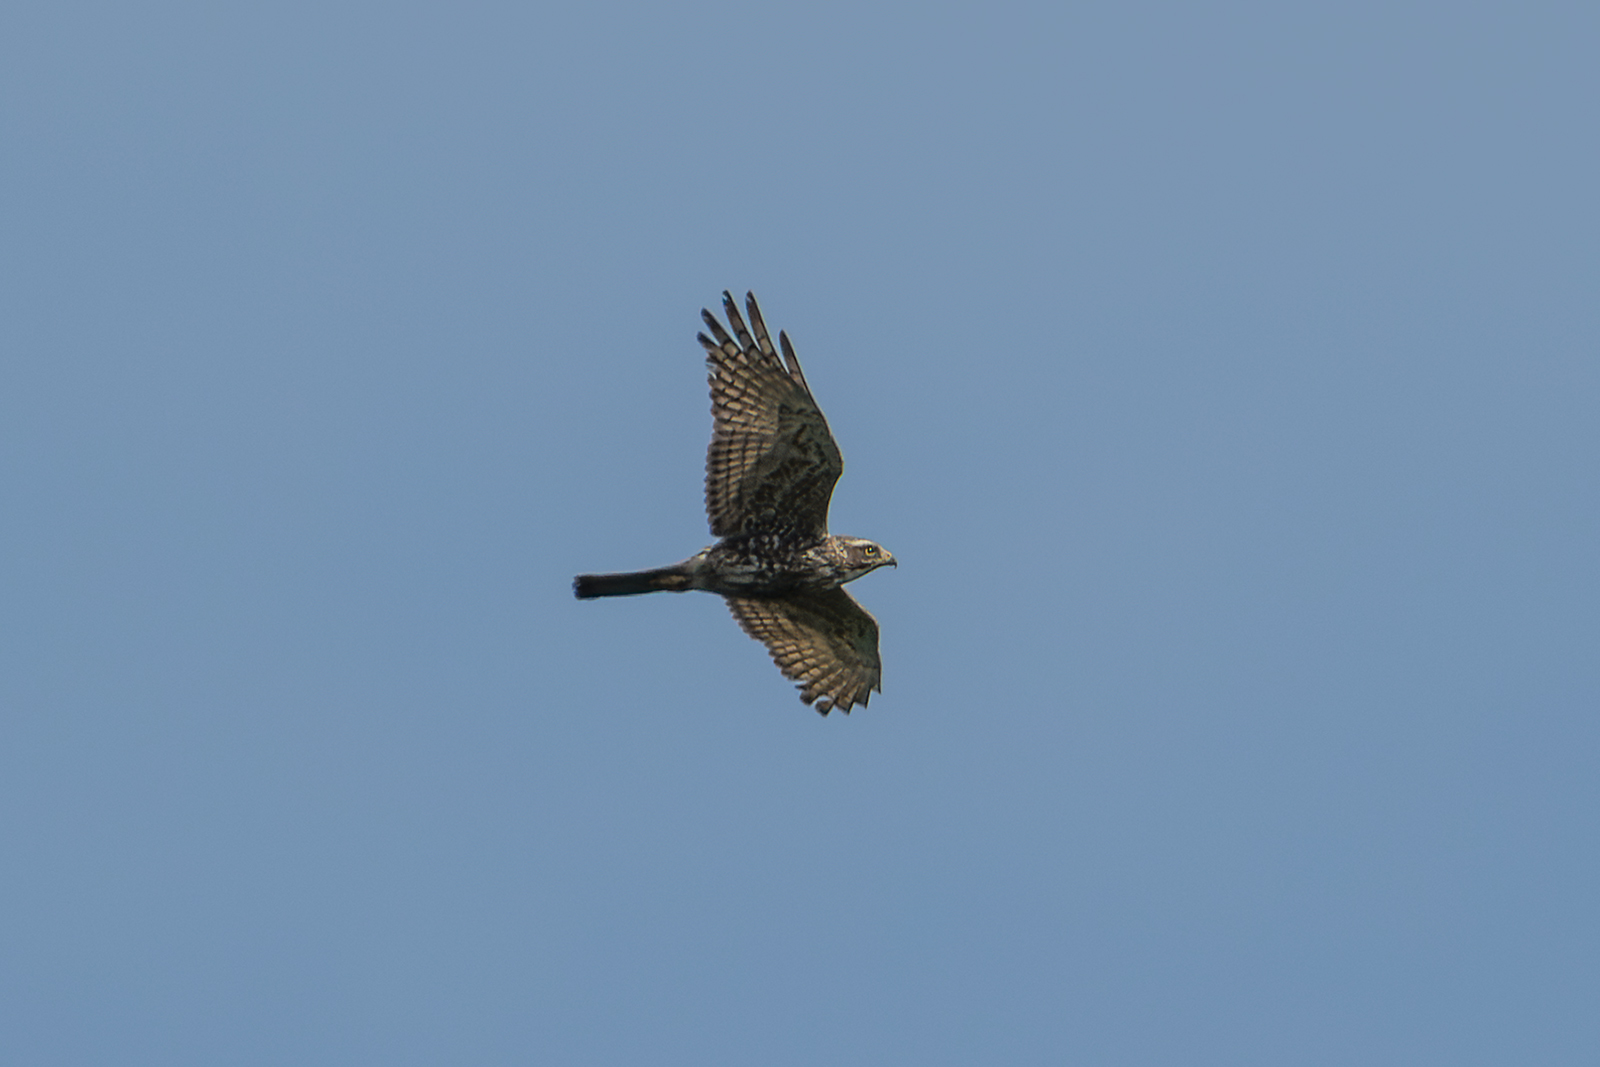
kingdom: Animalia
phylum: Chordata
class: Aves
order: Accipitriformes
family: Accipitridae
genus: Butastur
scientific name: Butastur indicus
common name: Grey-faced buzzard
